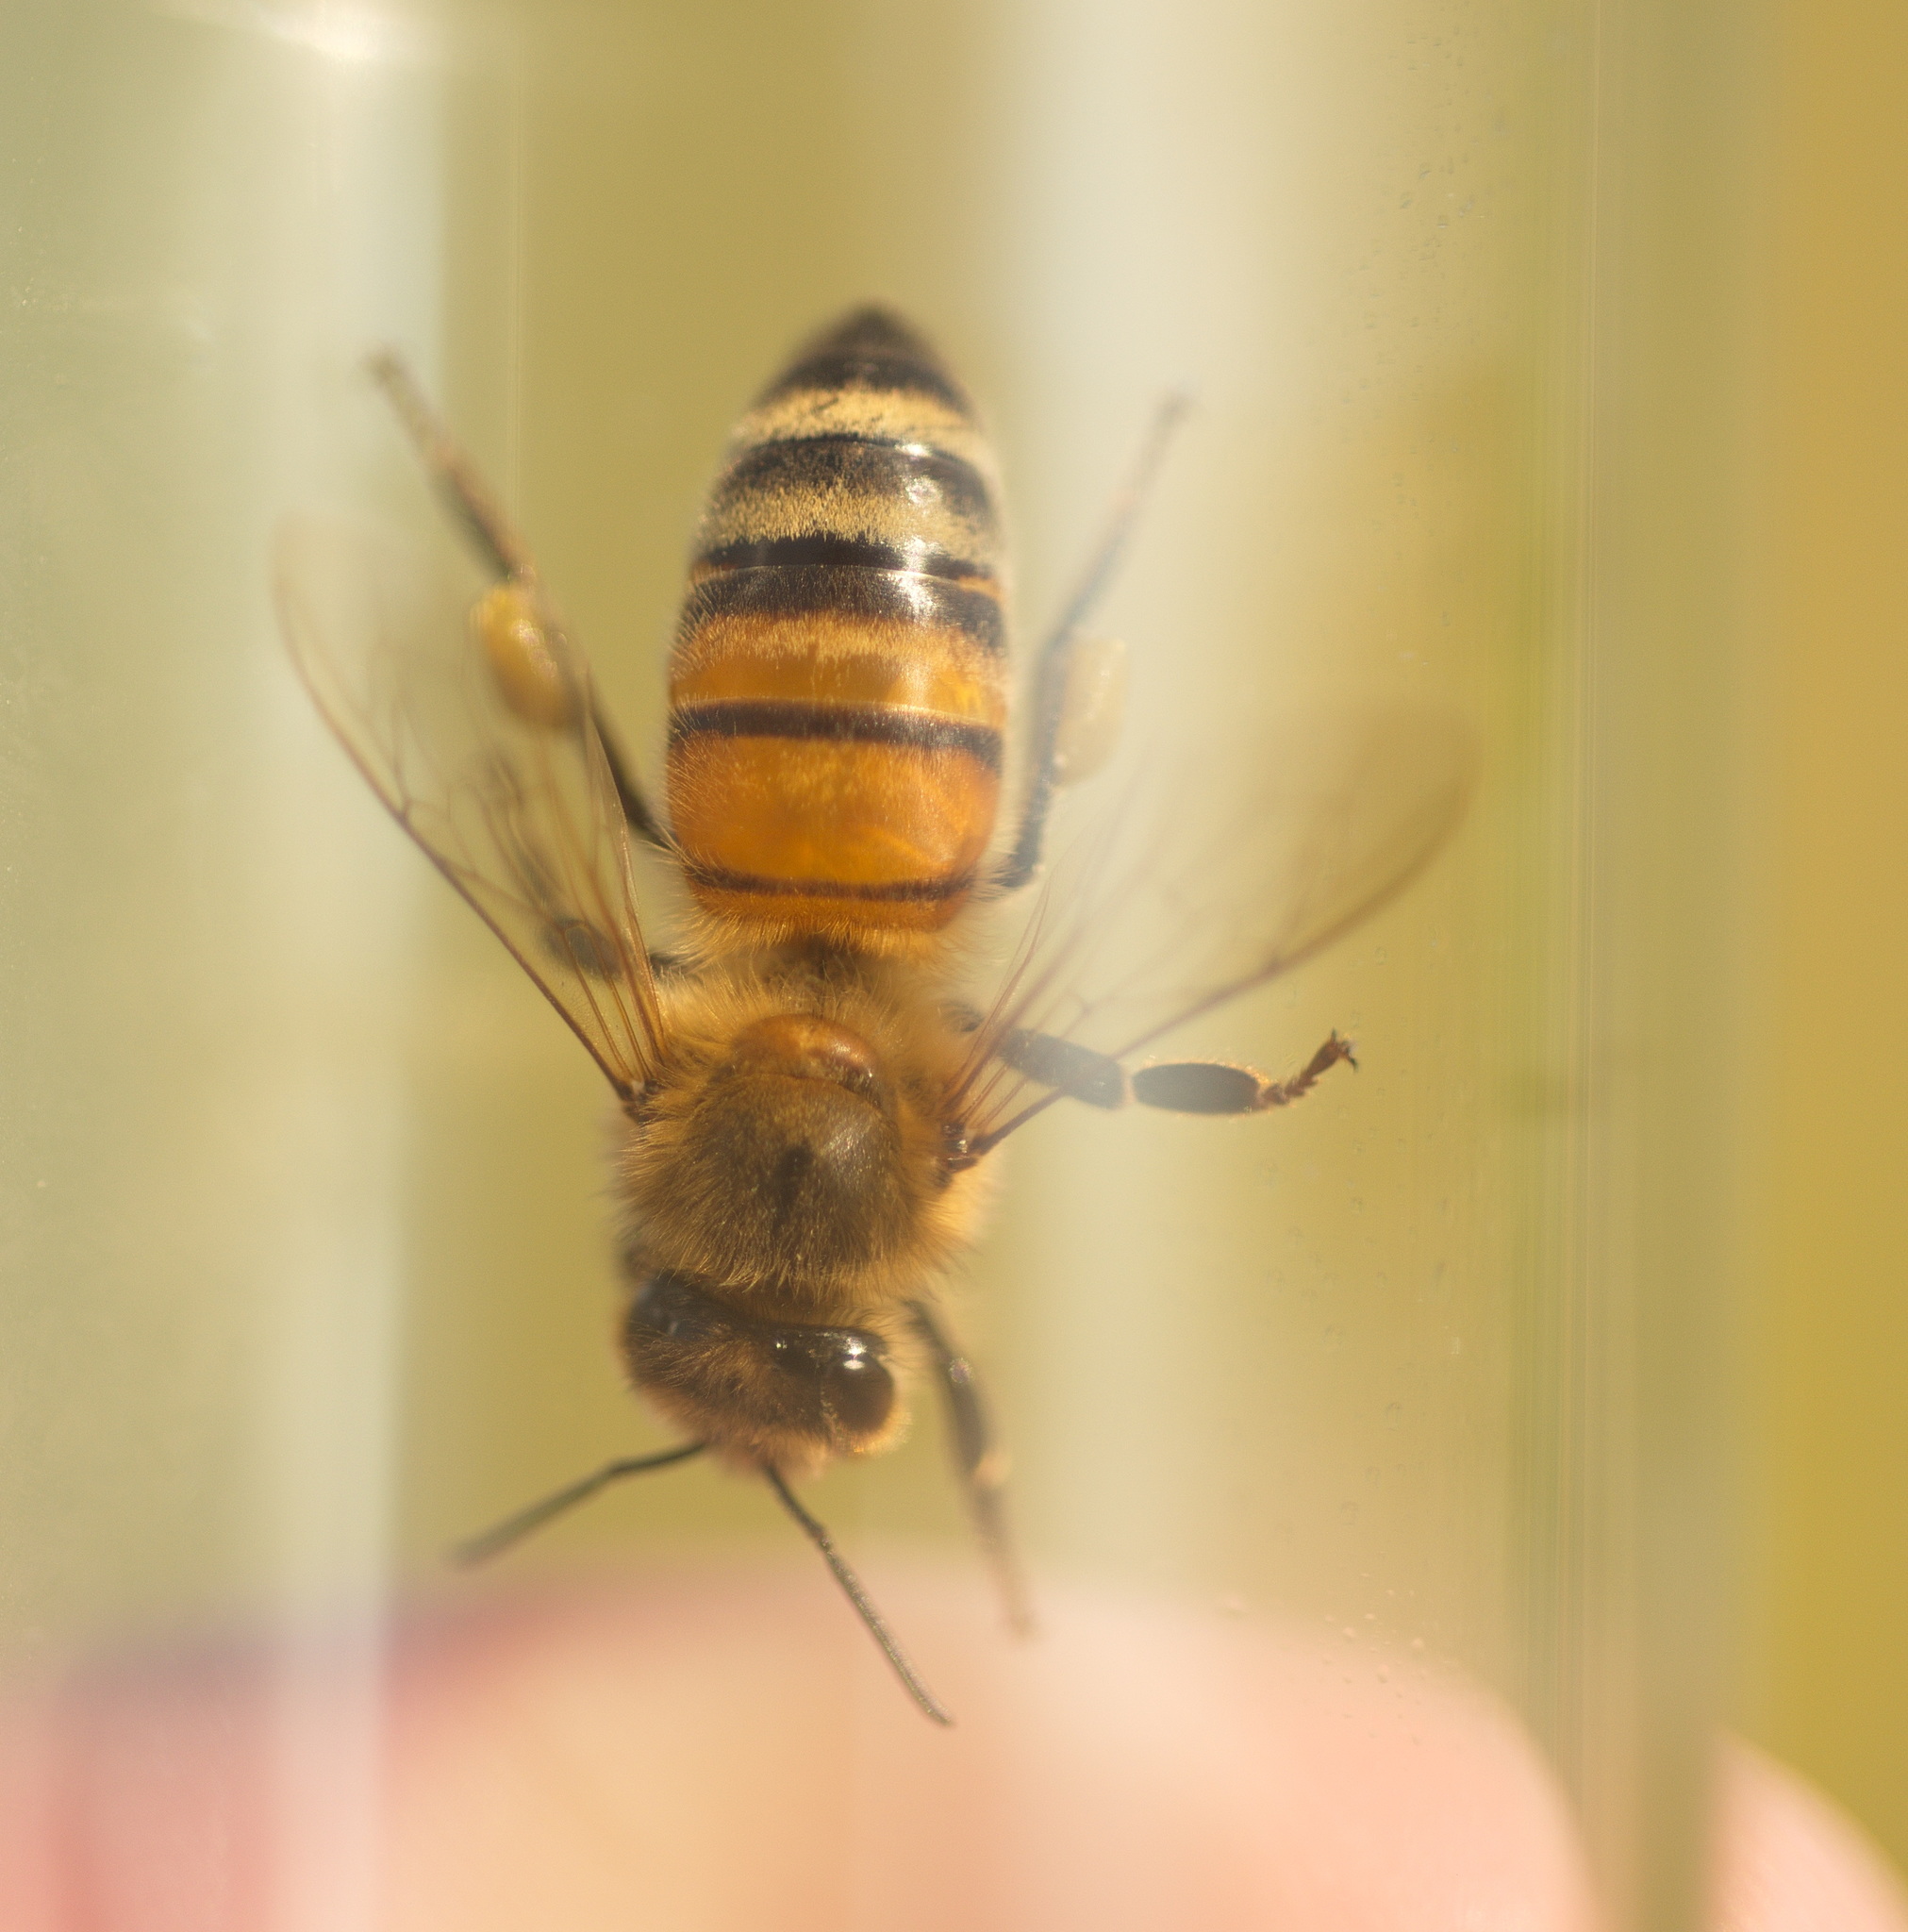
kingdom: Animalia
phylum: Arthropoda
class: Insecta
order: Hymenoptera
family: Apidae
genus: Apis
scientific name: Apis mellifera
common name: Honey bee
